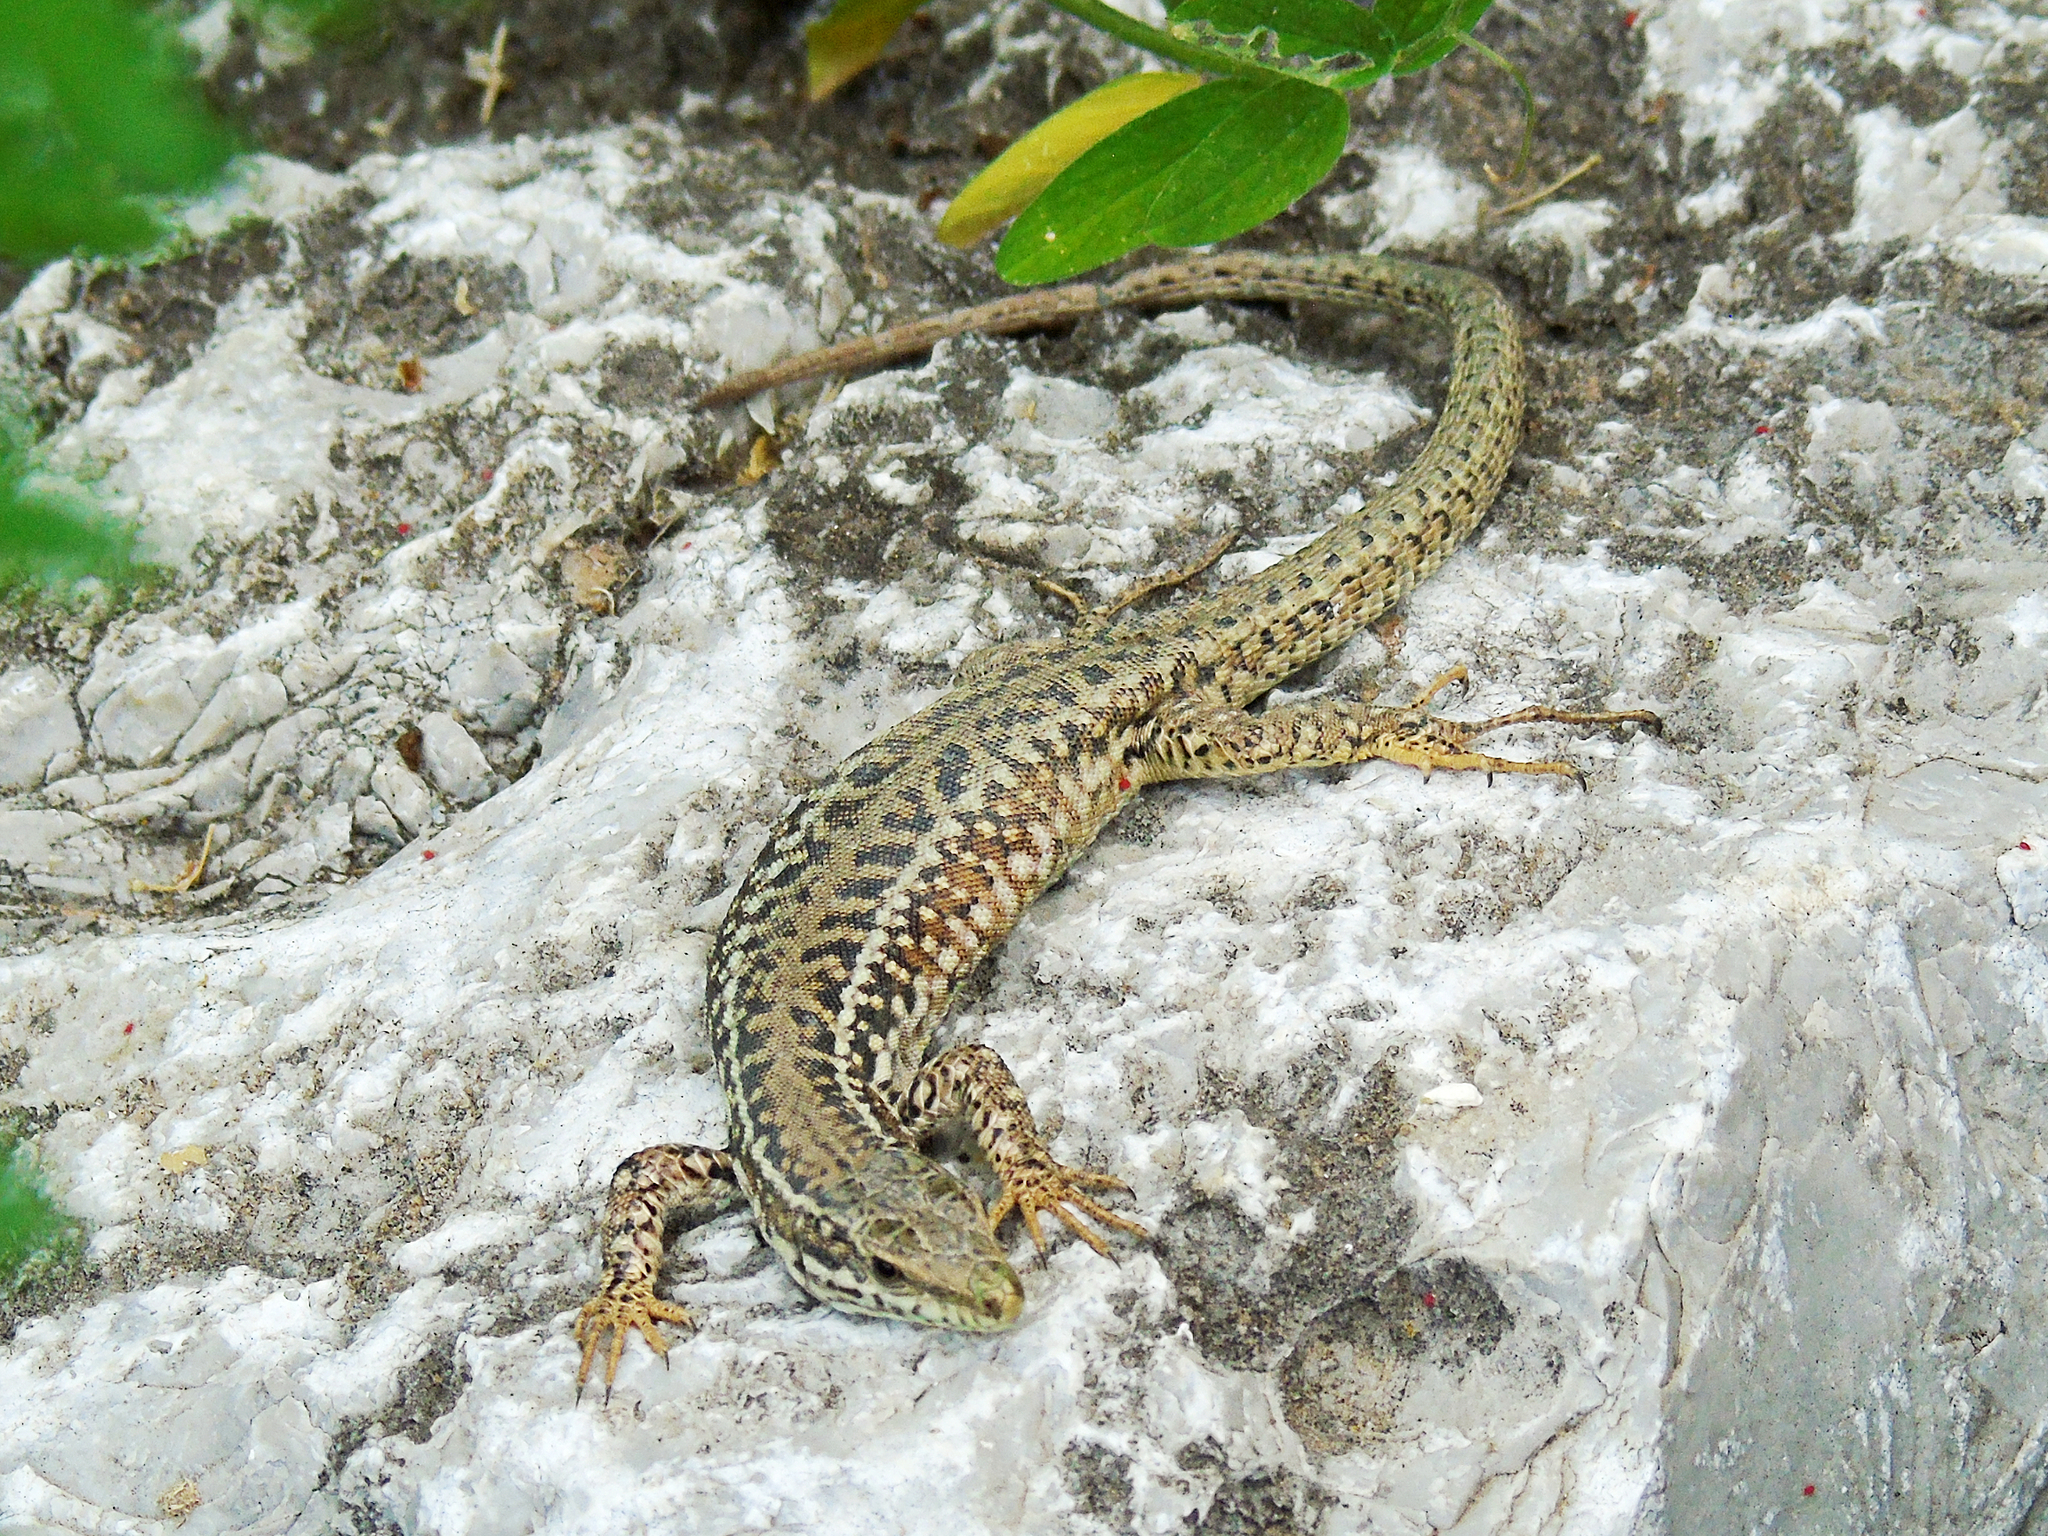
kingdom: Animalia
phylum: Chordata
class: Squamata
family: Lacertidae
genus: Podarcis
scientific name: Podarcis erhardii
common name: Erhard's wall lizard
